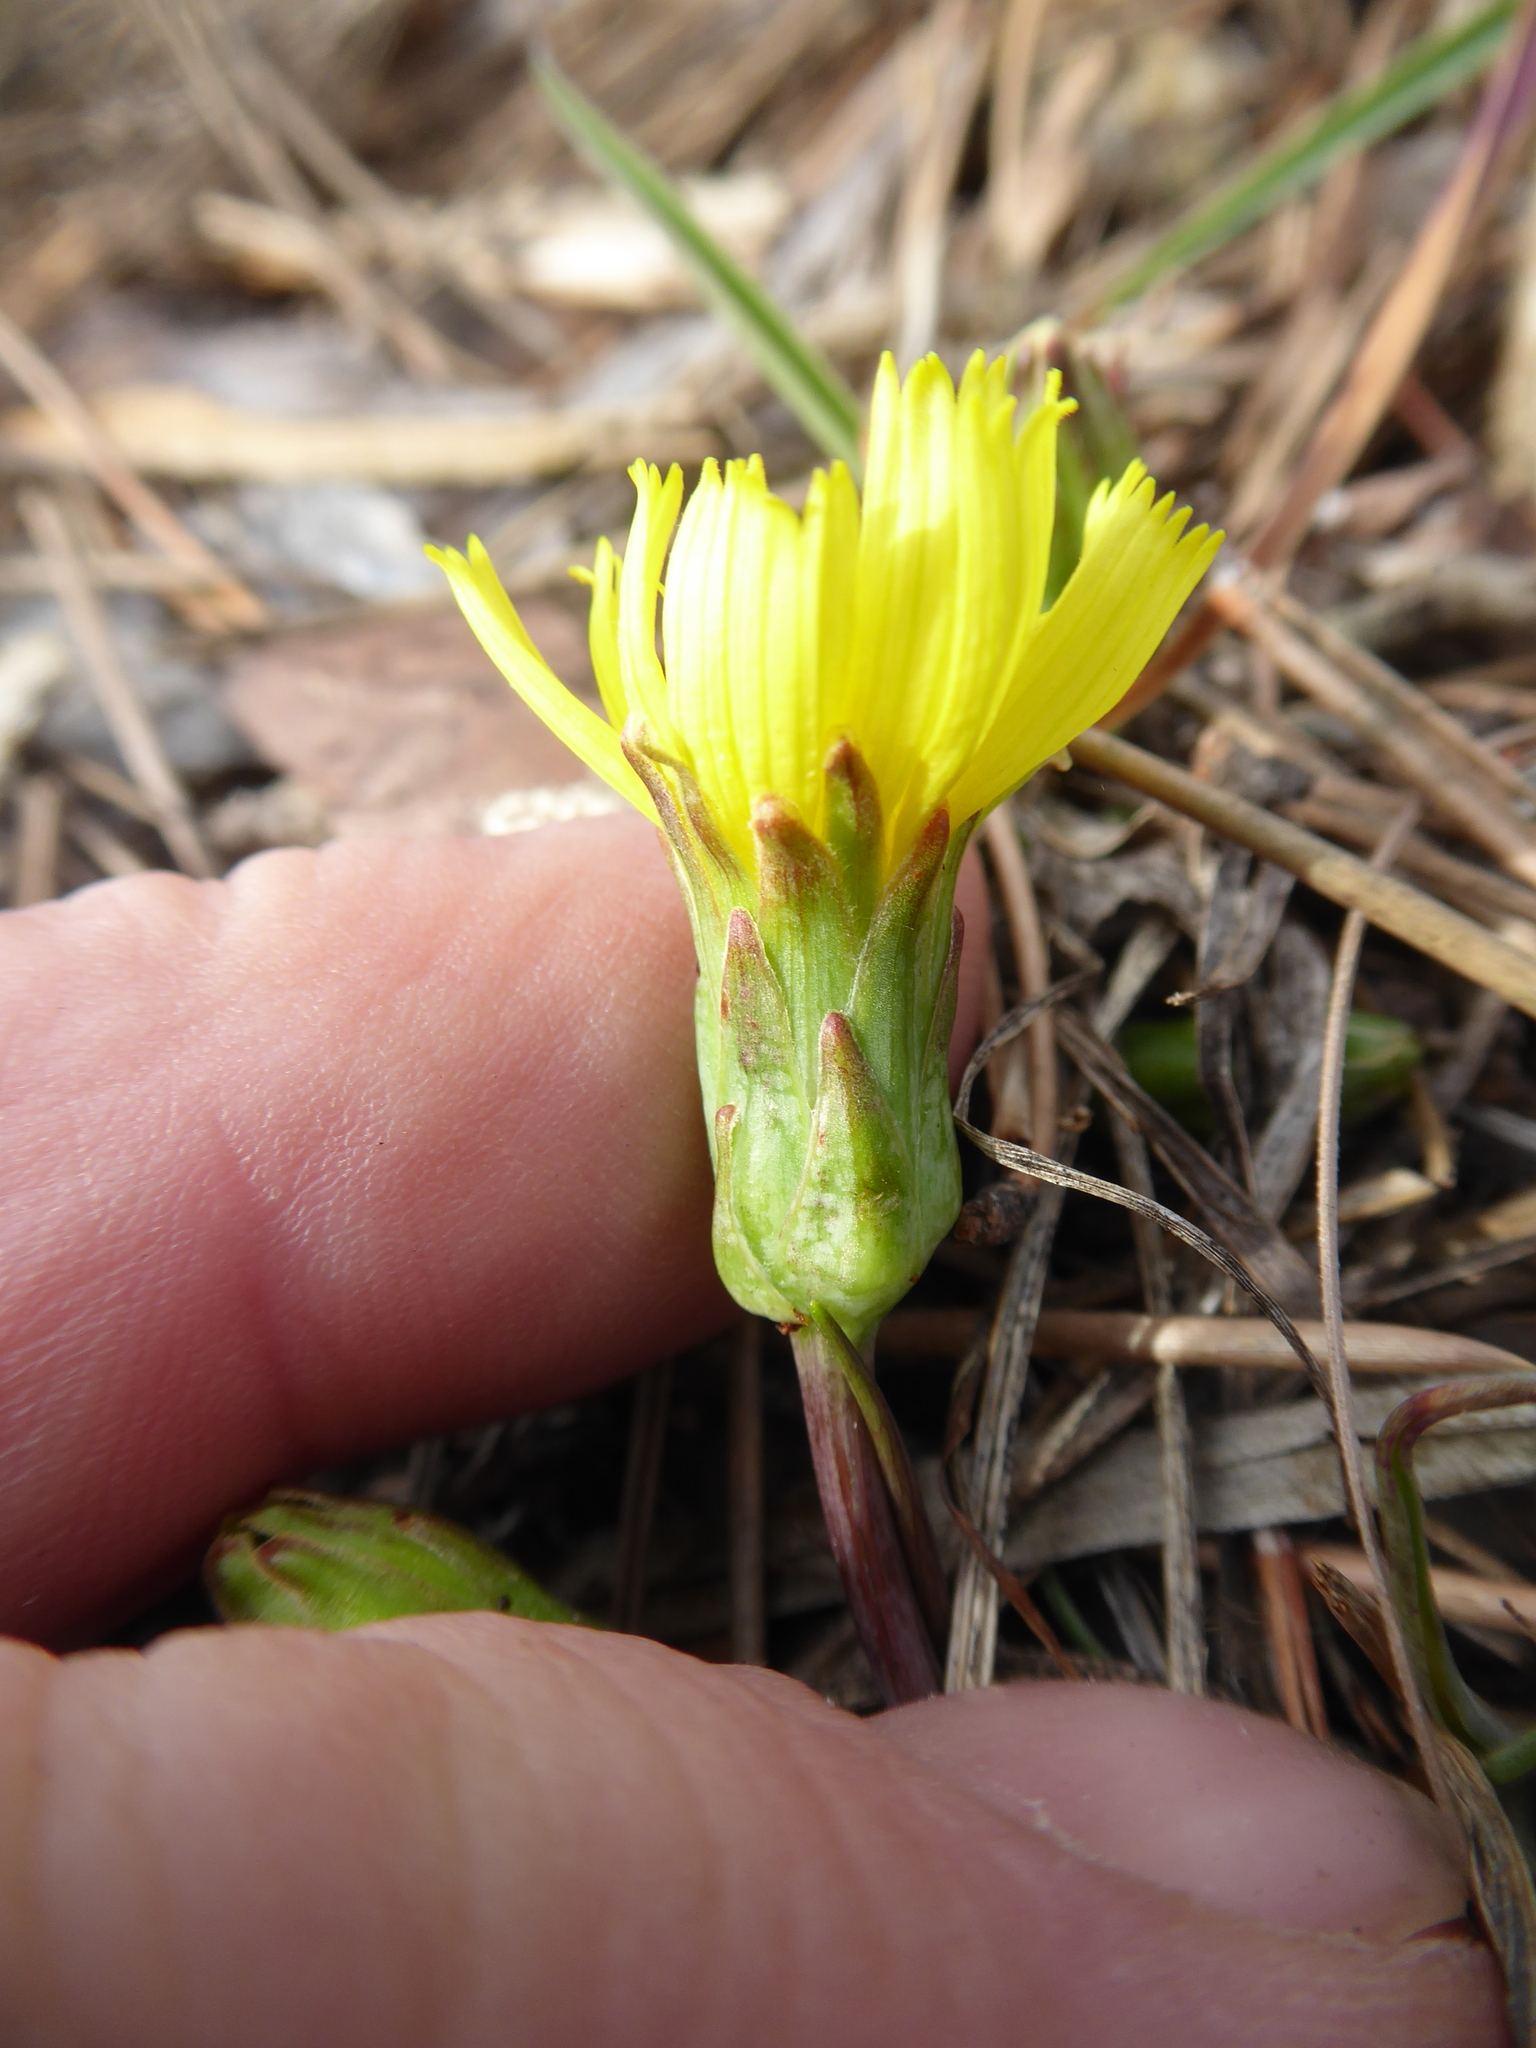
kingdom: Plantae
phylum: Tracheophyta
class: Magnoliopsida
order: Asterales
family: Asteraceae
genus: Takhtajaniantha
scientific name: Takhtajaniantha austriaca
